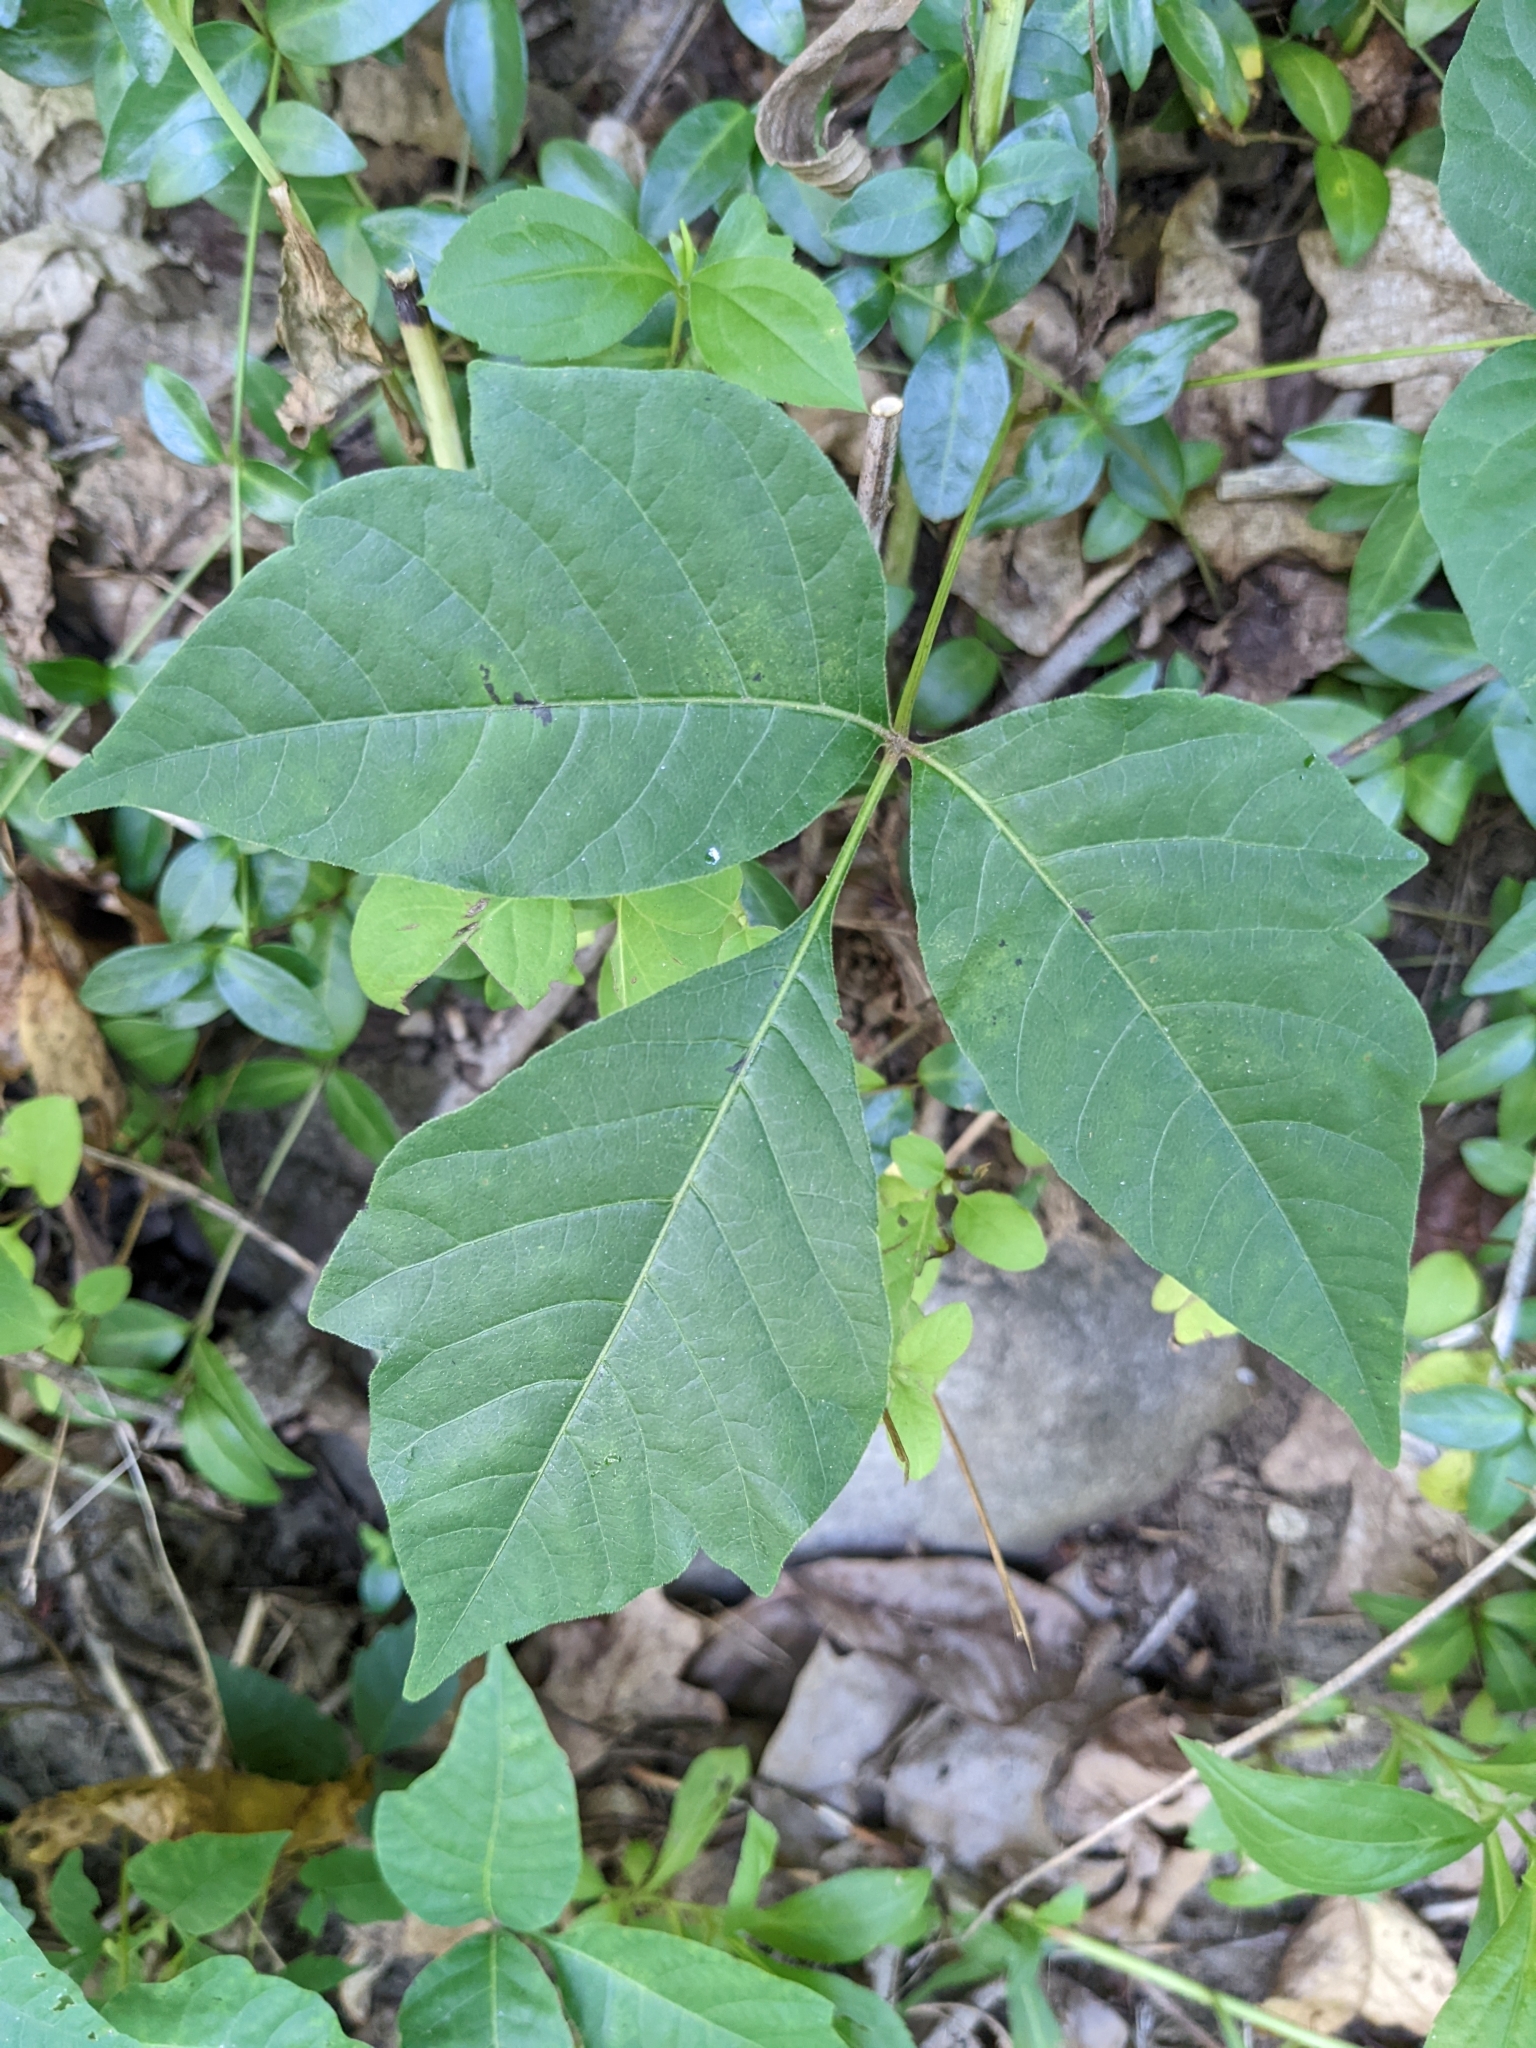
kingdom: Plantae
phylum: Tracheophyta
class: Magnoliopsida
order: Sapindales
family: Anacardiaceae
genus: Toxicodendron
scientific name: Toxicodendron radicans
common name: Poison ivy
